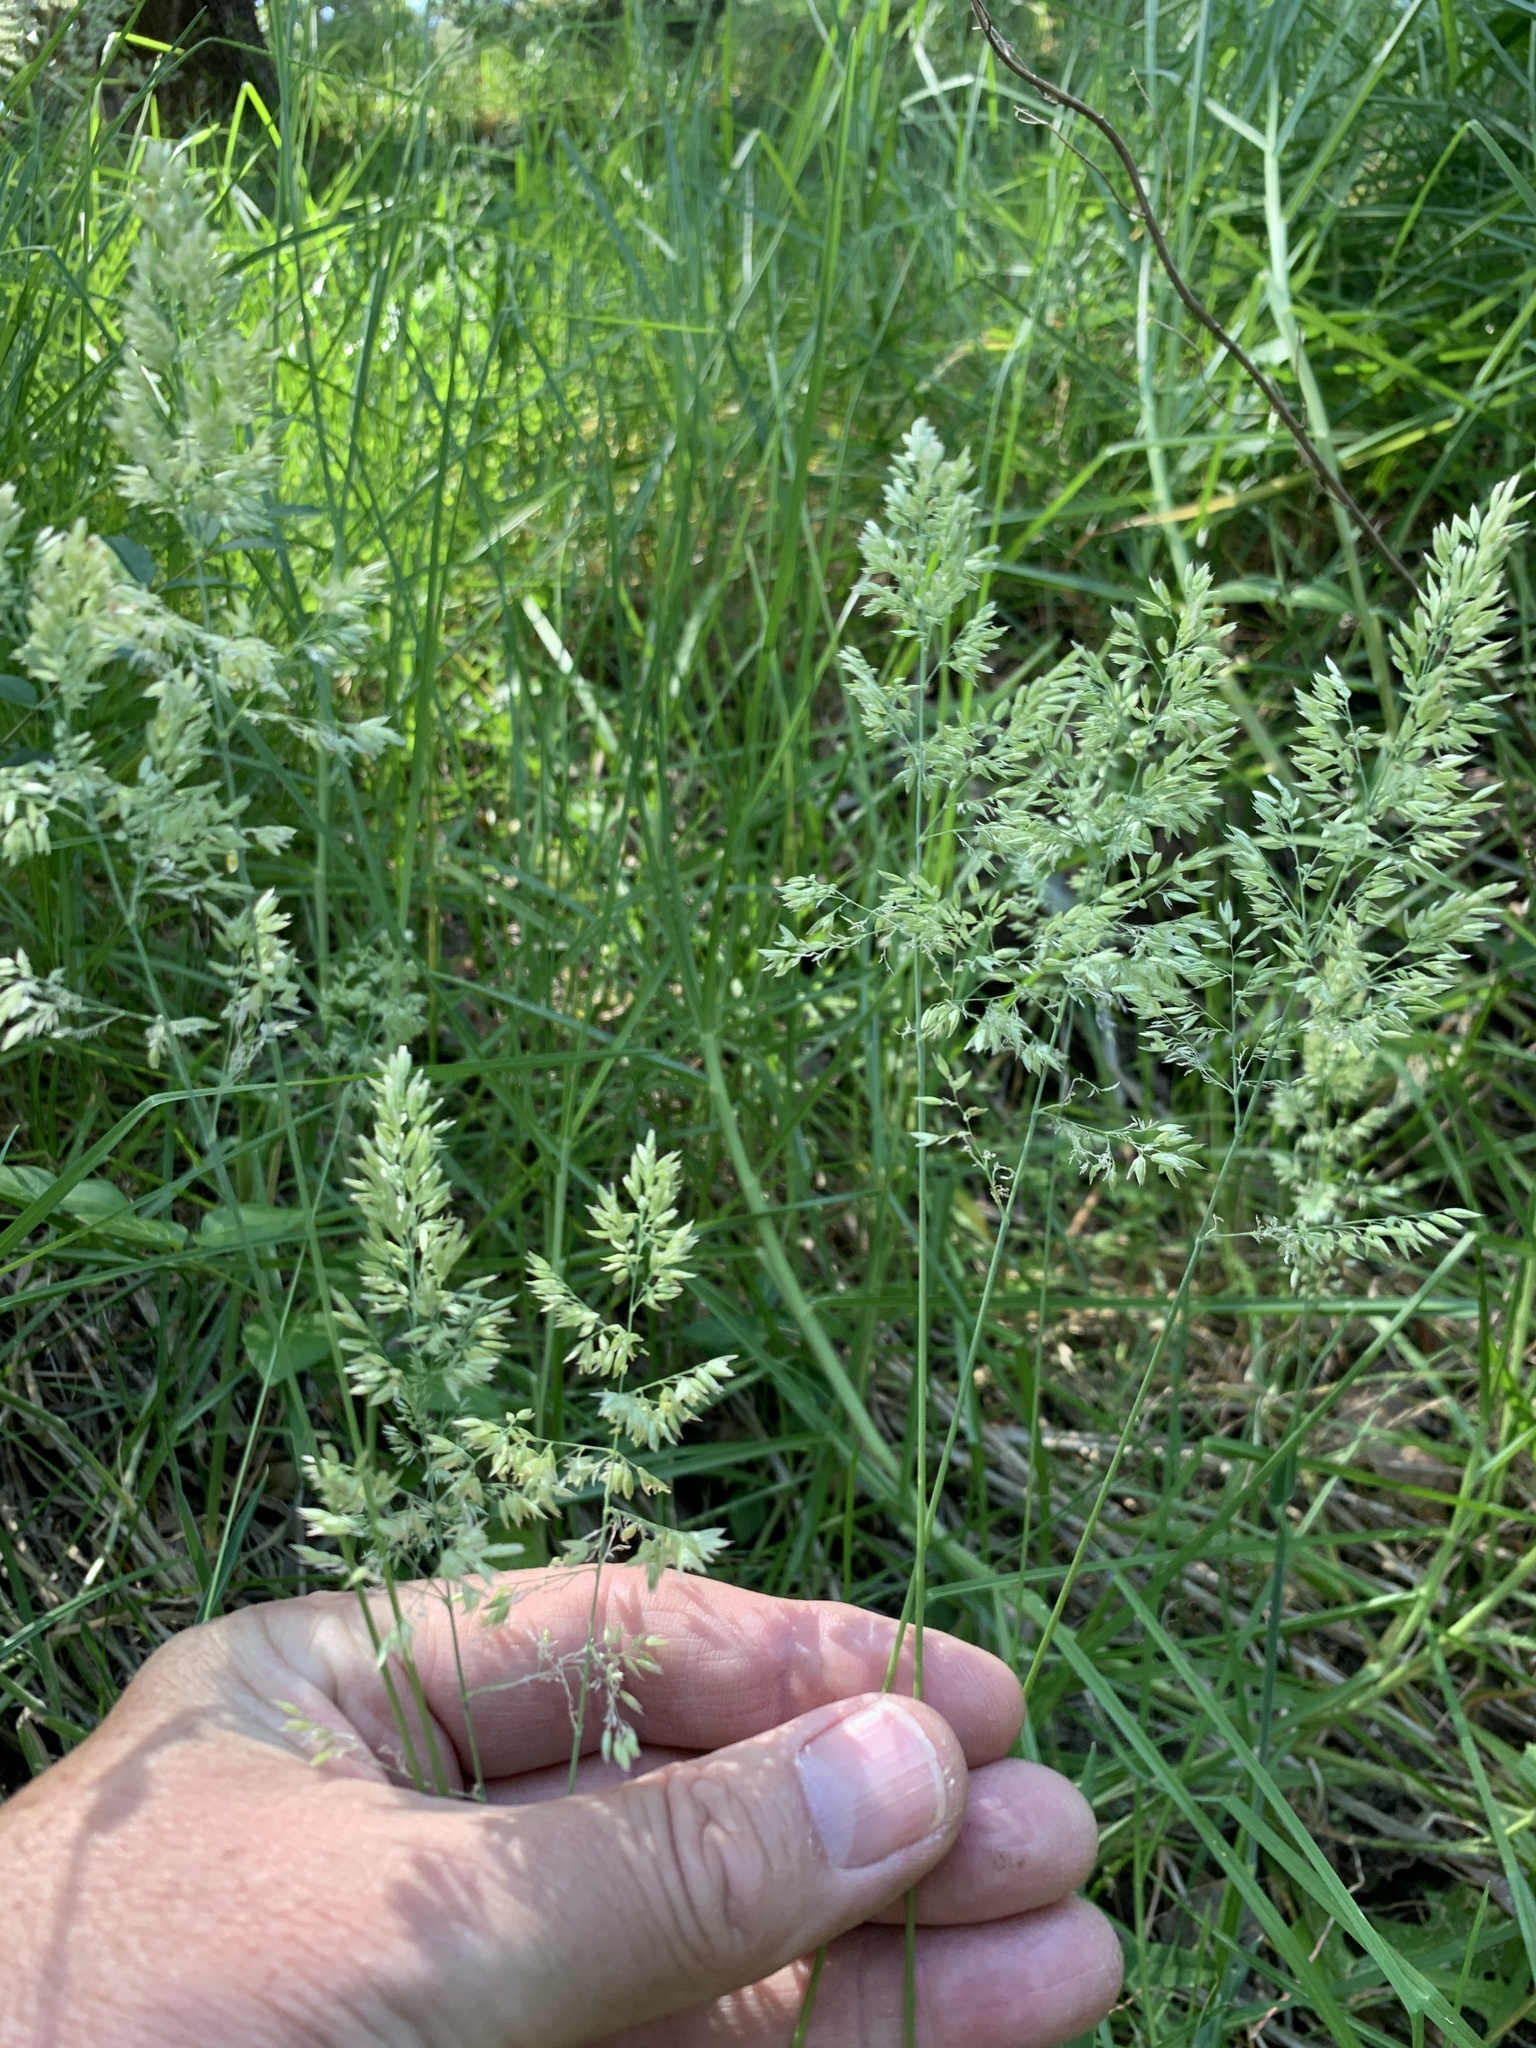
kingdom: Plantae
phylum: Tracheophyta
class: Liliopsida
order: Poales
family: Poaceae
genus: Holcus
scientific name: Holcus lanatus
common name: Yorkshire-fog
